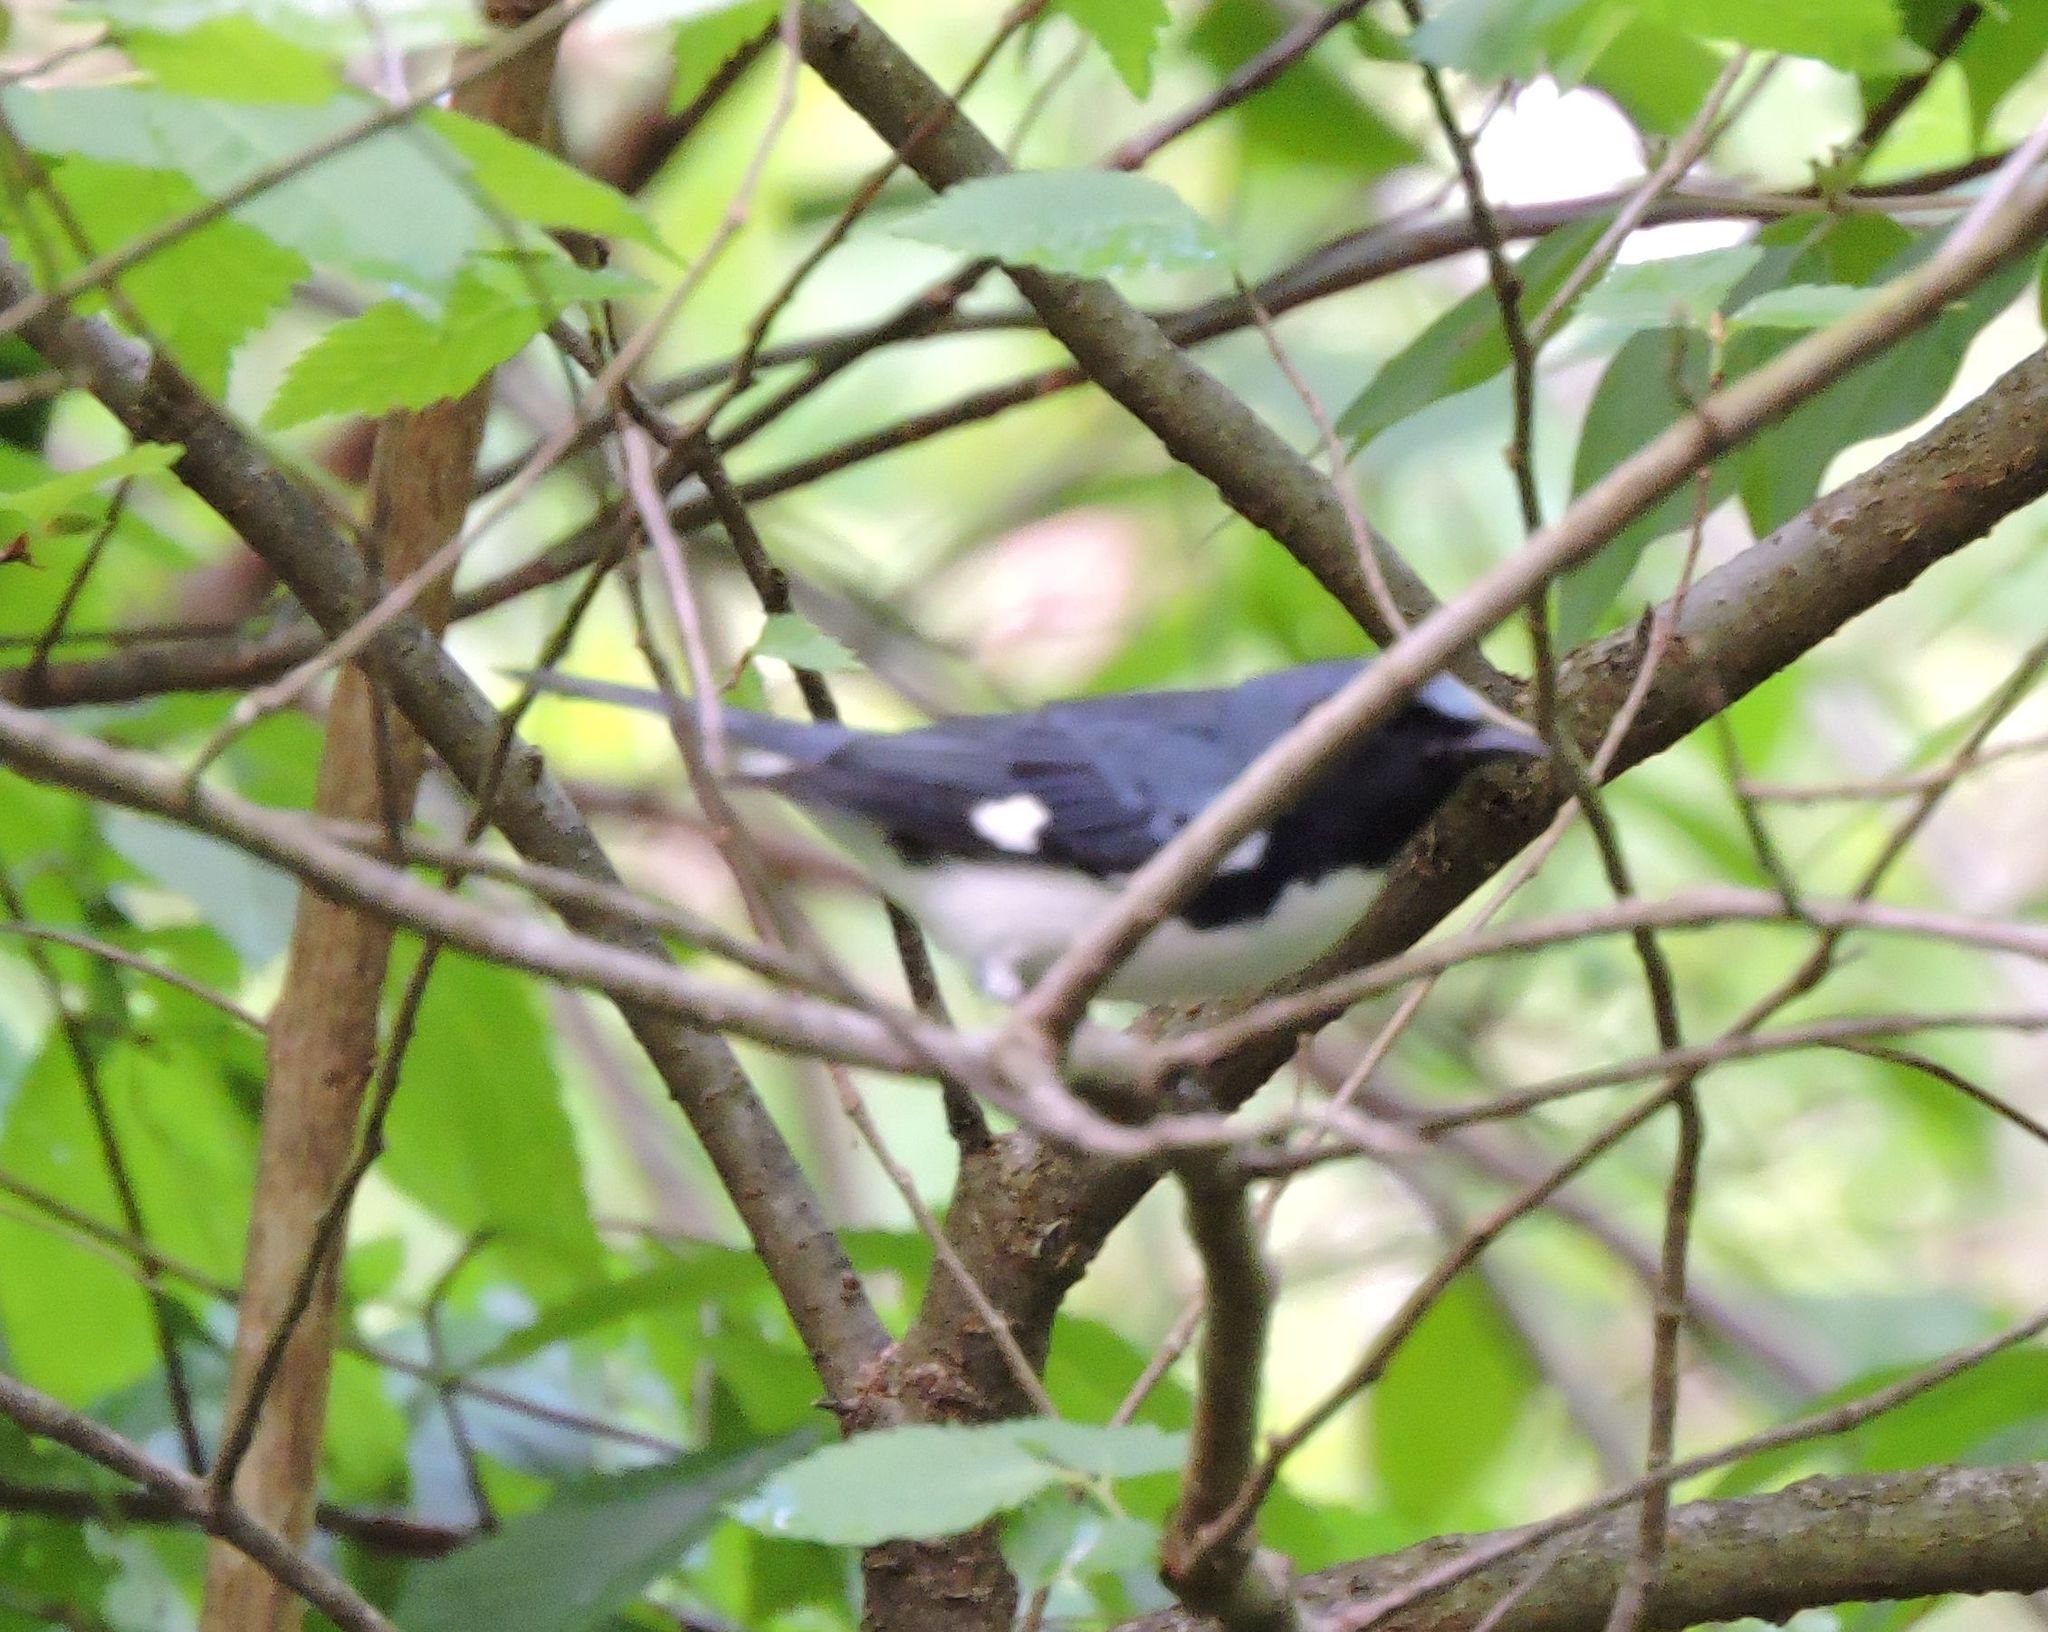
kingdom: Animalia
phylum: Chordata
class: Aves
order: Passeriformes
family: Parulidae
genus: Setophaga
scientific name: Setophaga caerulescens
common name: Black-throated blue warbler
